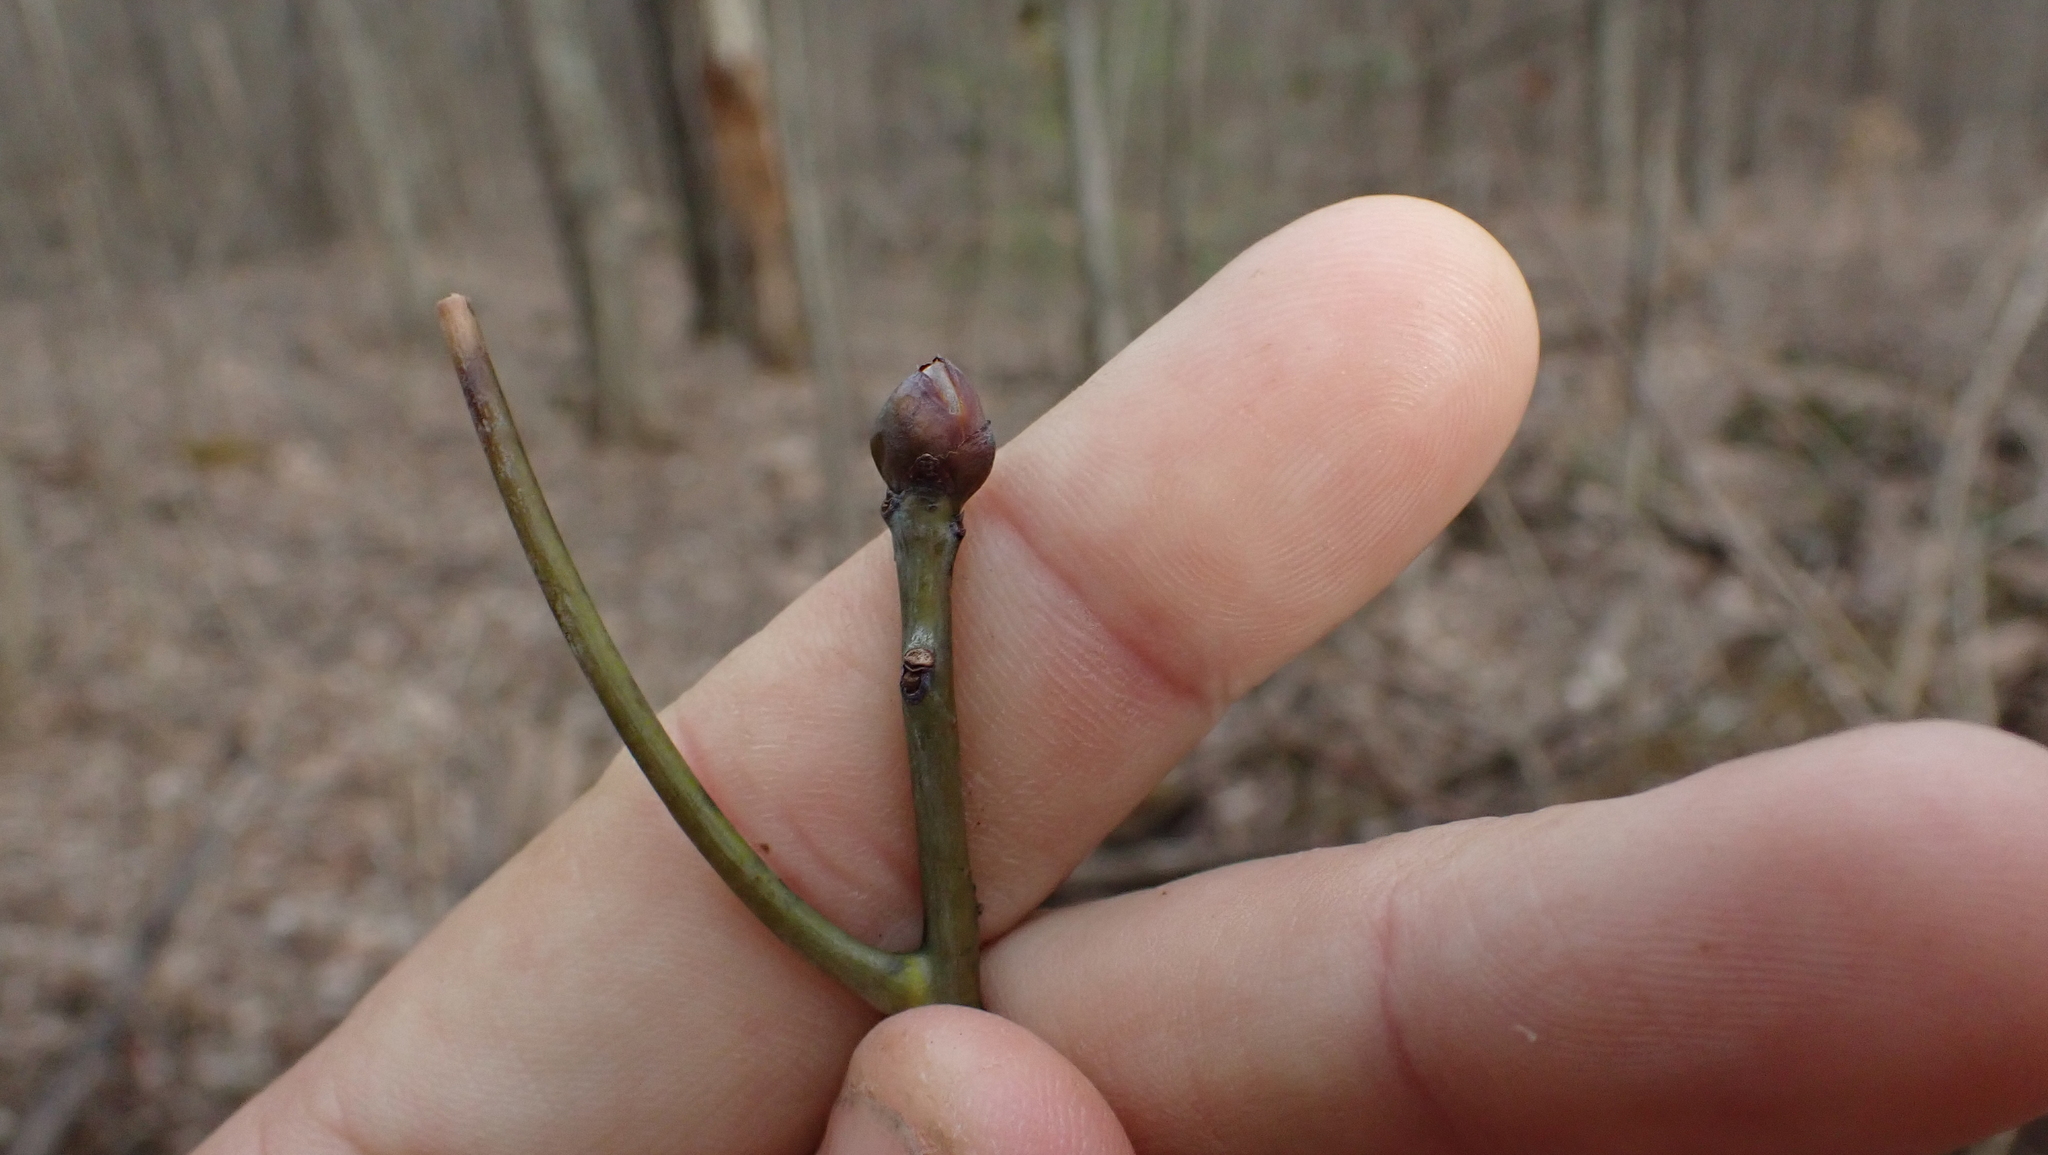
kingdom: Plantae
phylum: Tracheophyta
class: Magnoliopsida
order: Laurales
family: Lauraceae
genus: Sassafras
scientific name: Sassafras albidum
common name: Sassafras
